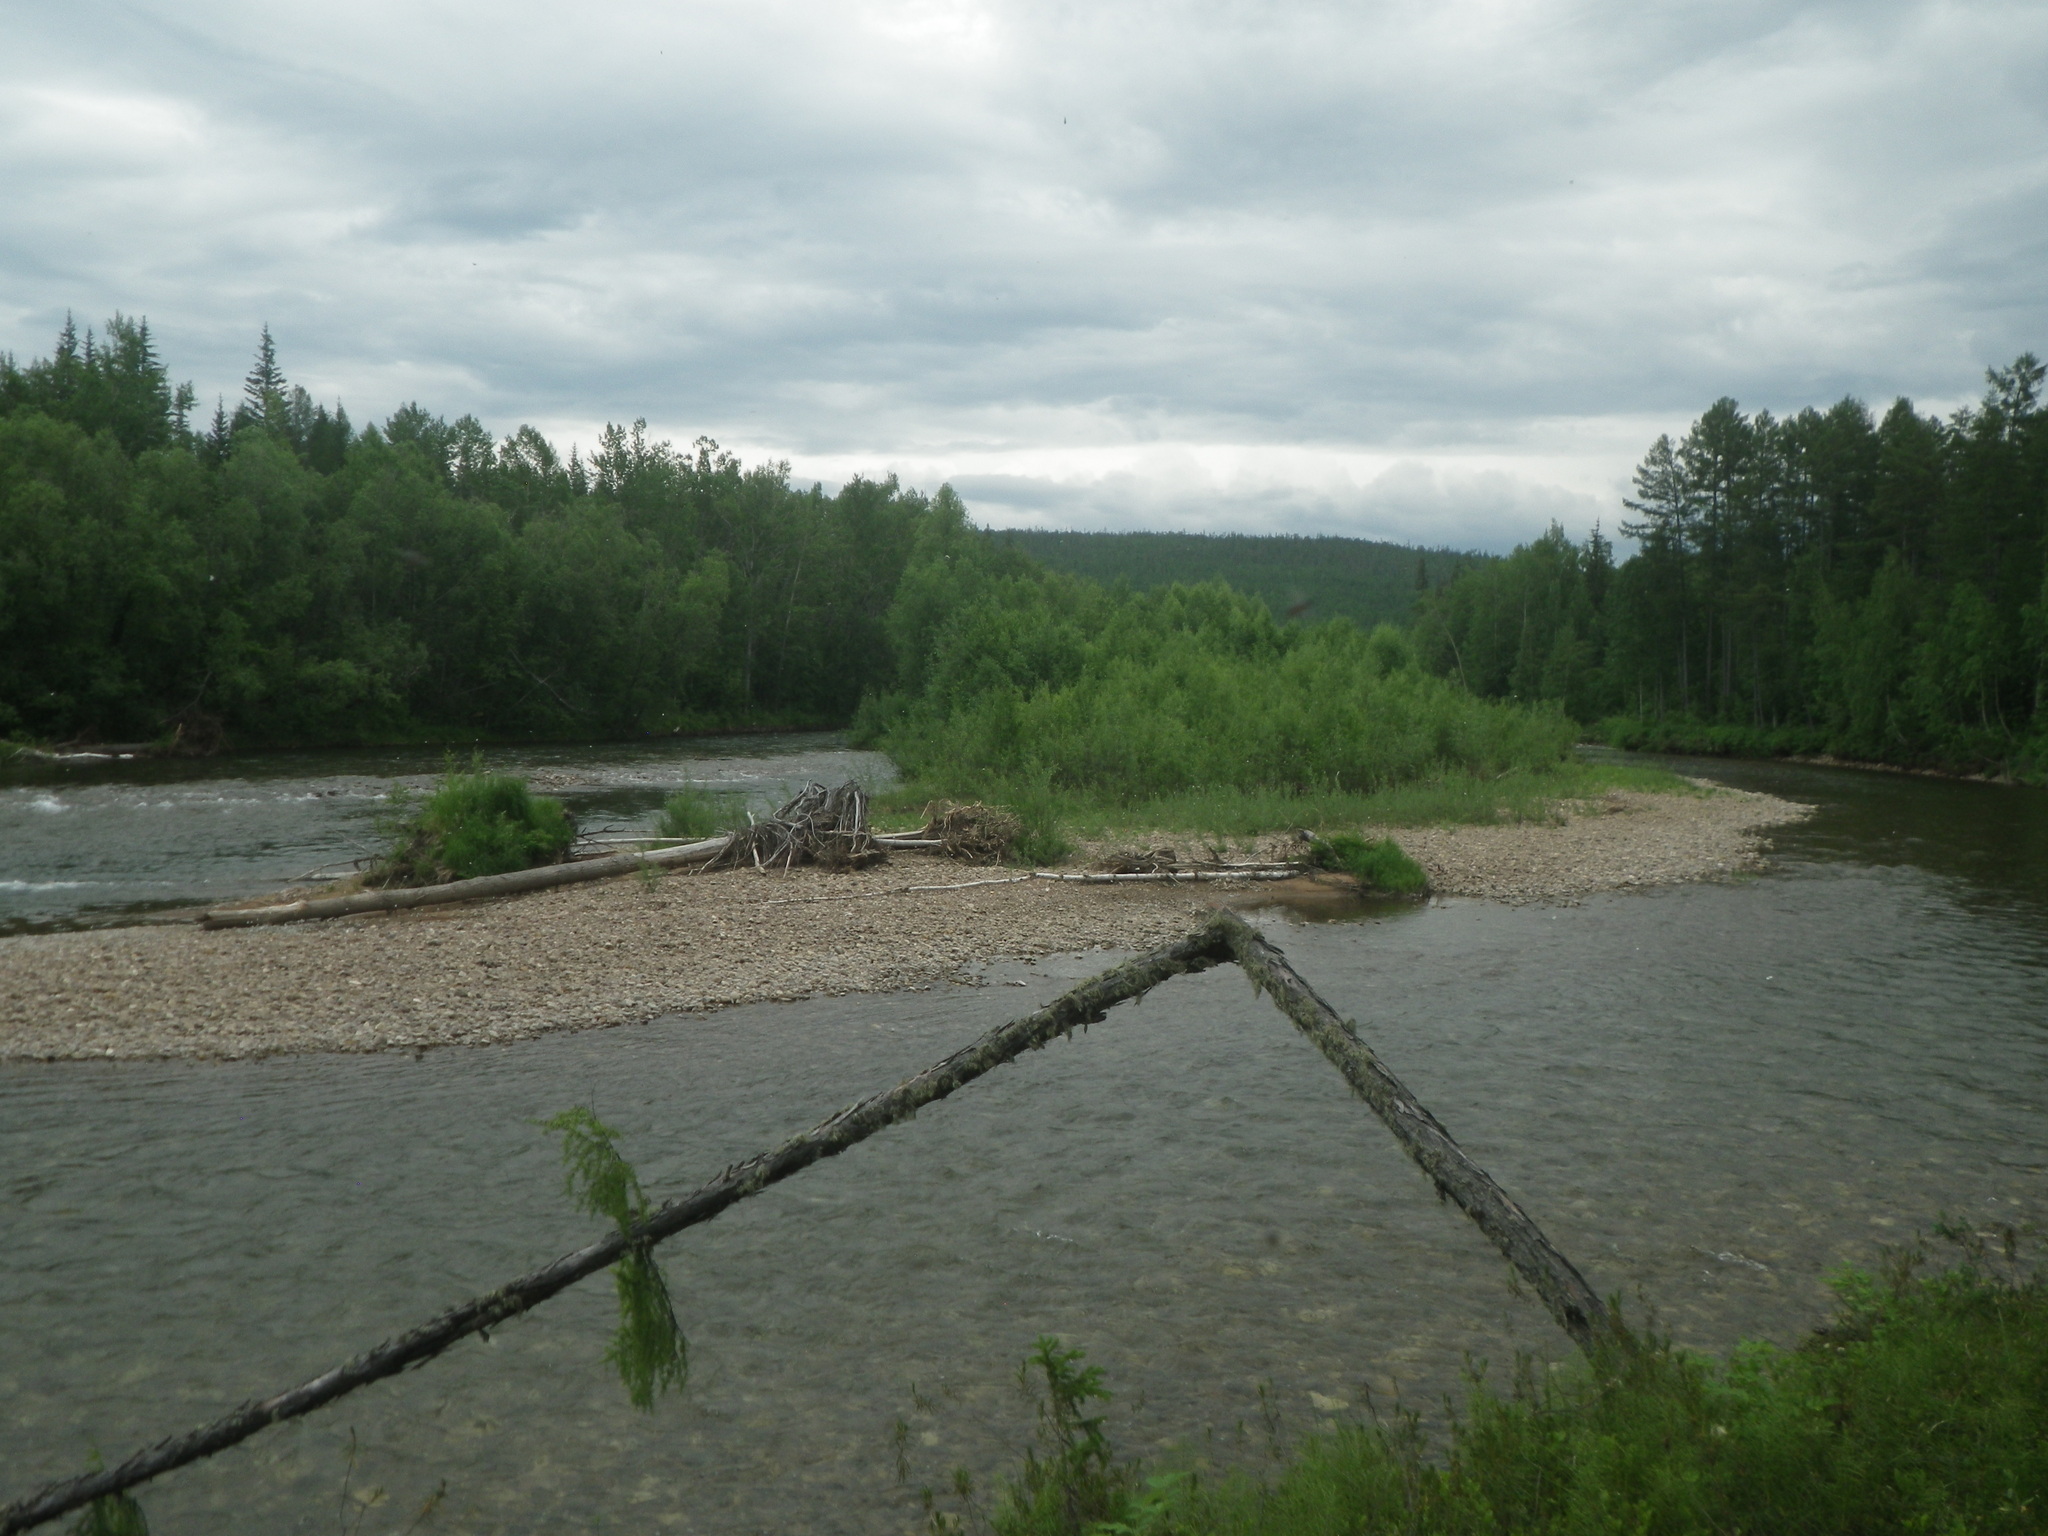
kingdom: Plantae
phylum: Tracheophyta
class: Pinopsida
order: Pinales
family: Pinaceae
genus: Larix
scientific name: Larix gmelinii
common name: Dahurian larch
